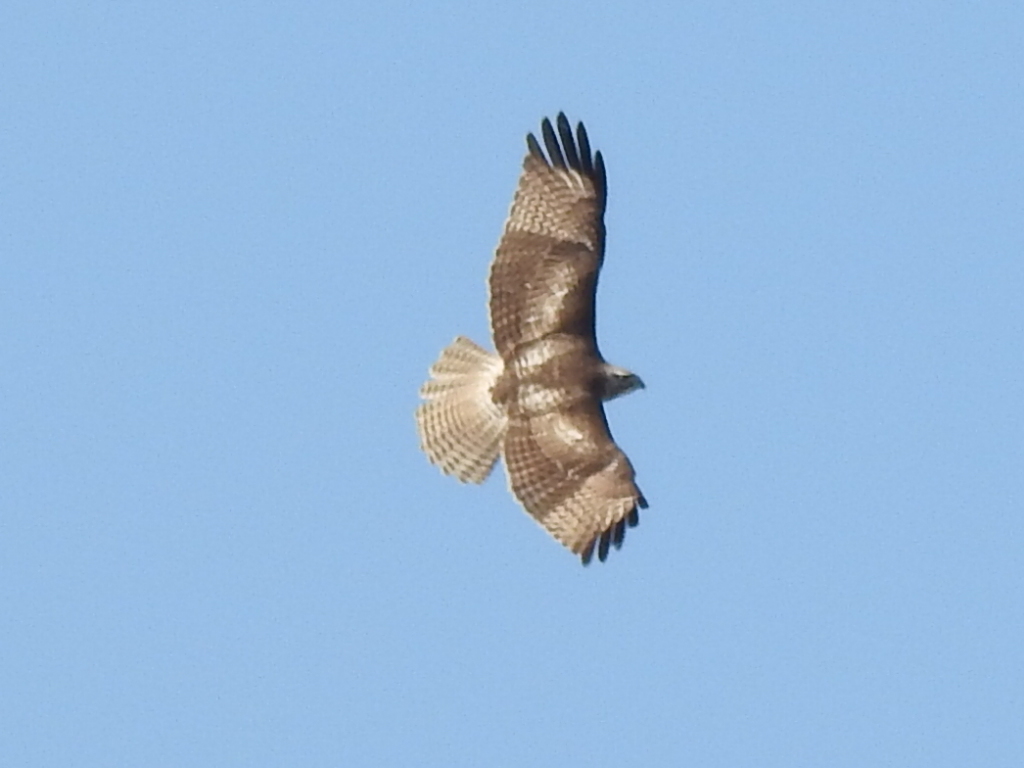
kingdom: Animalia
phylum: Chordata
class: Aves
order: Accipitriformes
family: Accipitridae
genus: Buteo
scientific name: Buteo jamaicensis
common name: Red-tailed hawk
